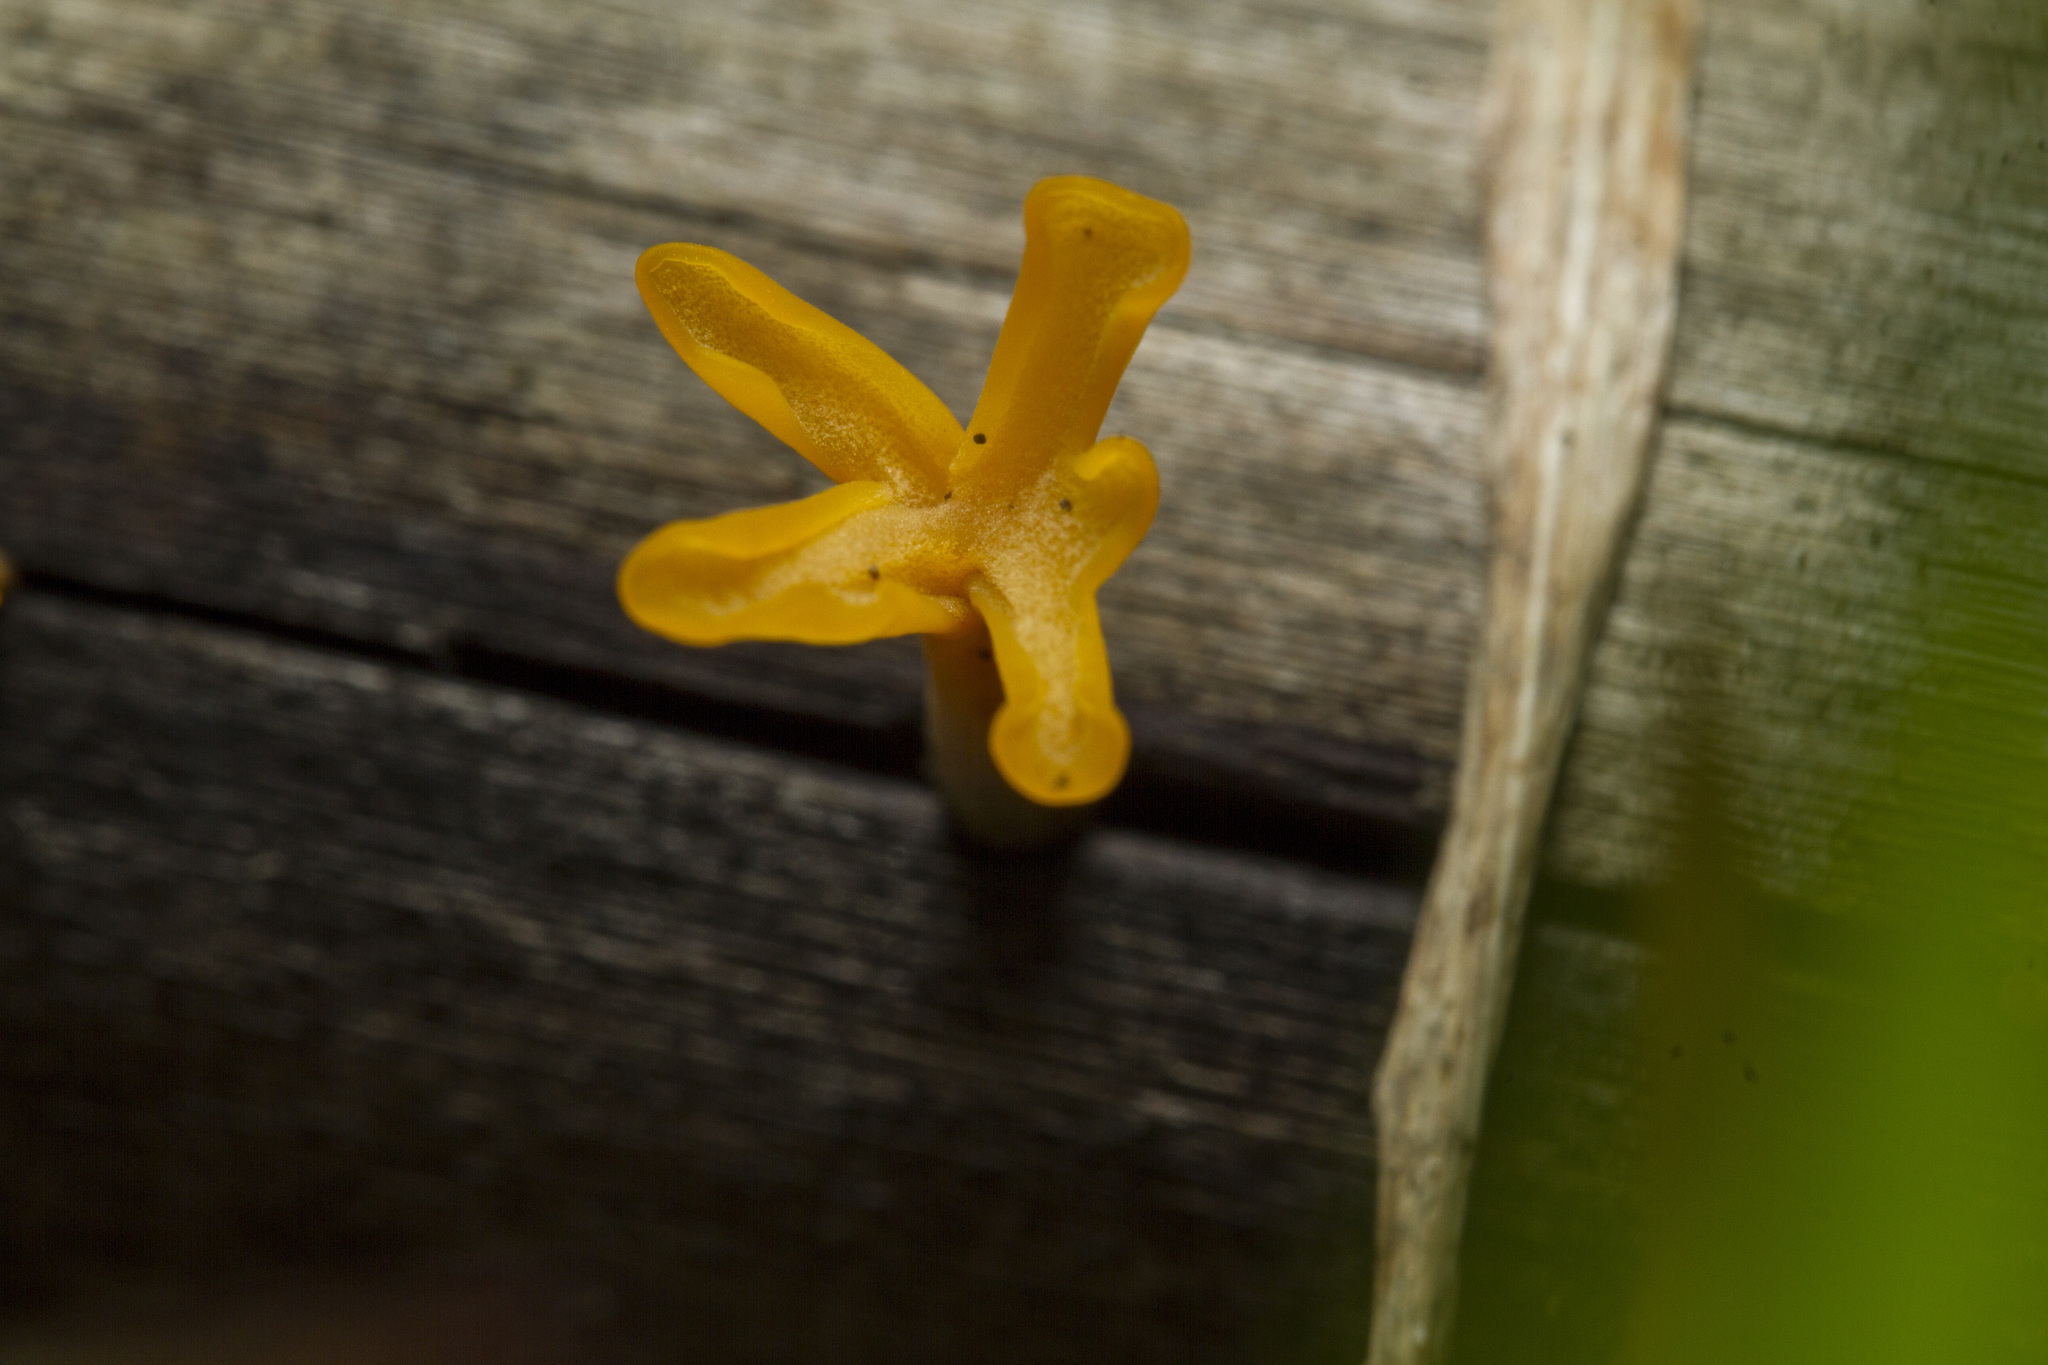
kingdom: Fungi
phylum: Basidiomycota
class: Dacrymycetes
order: Dacrymycetales
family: Dacrymycetaceae
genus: Dacrymyces
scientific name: Dacrymyces spathularius
